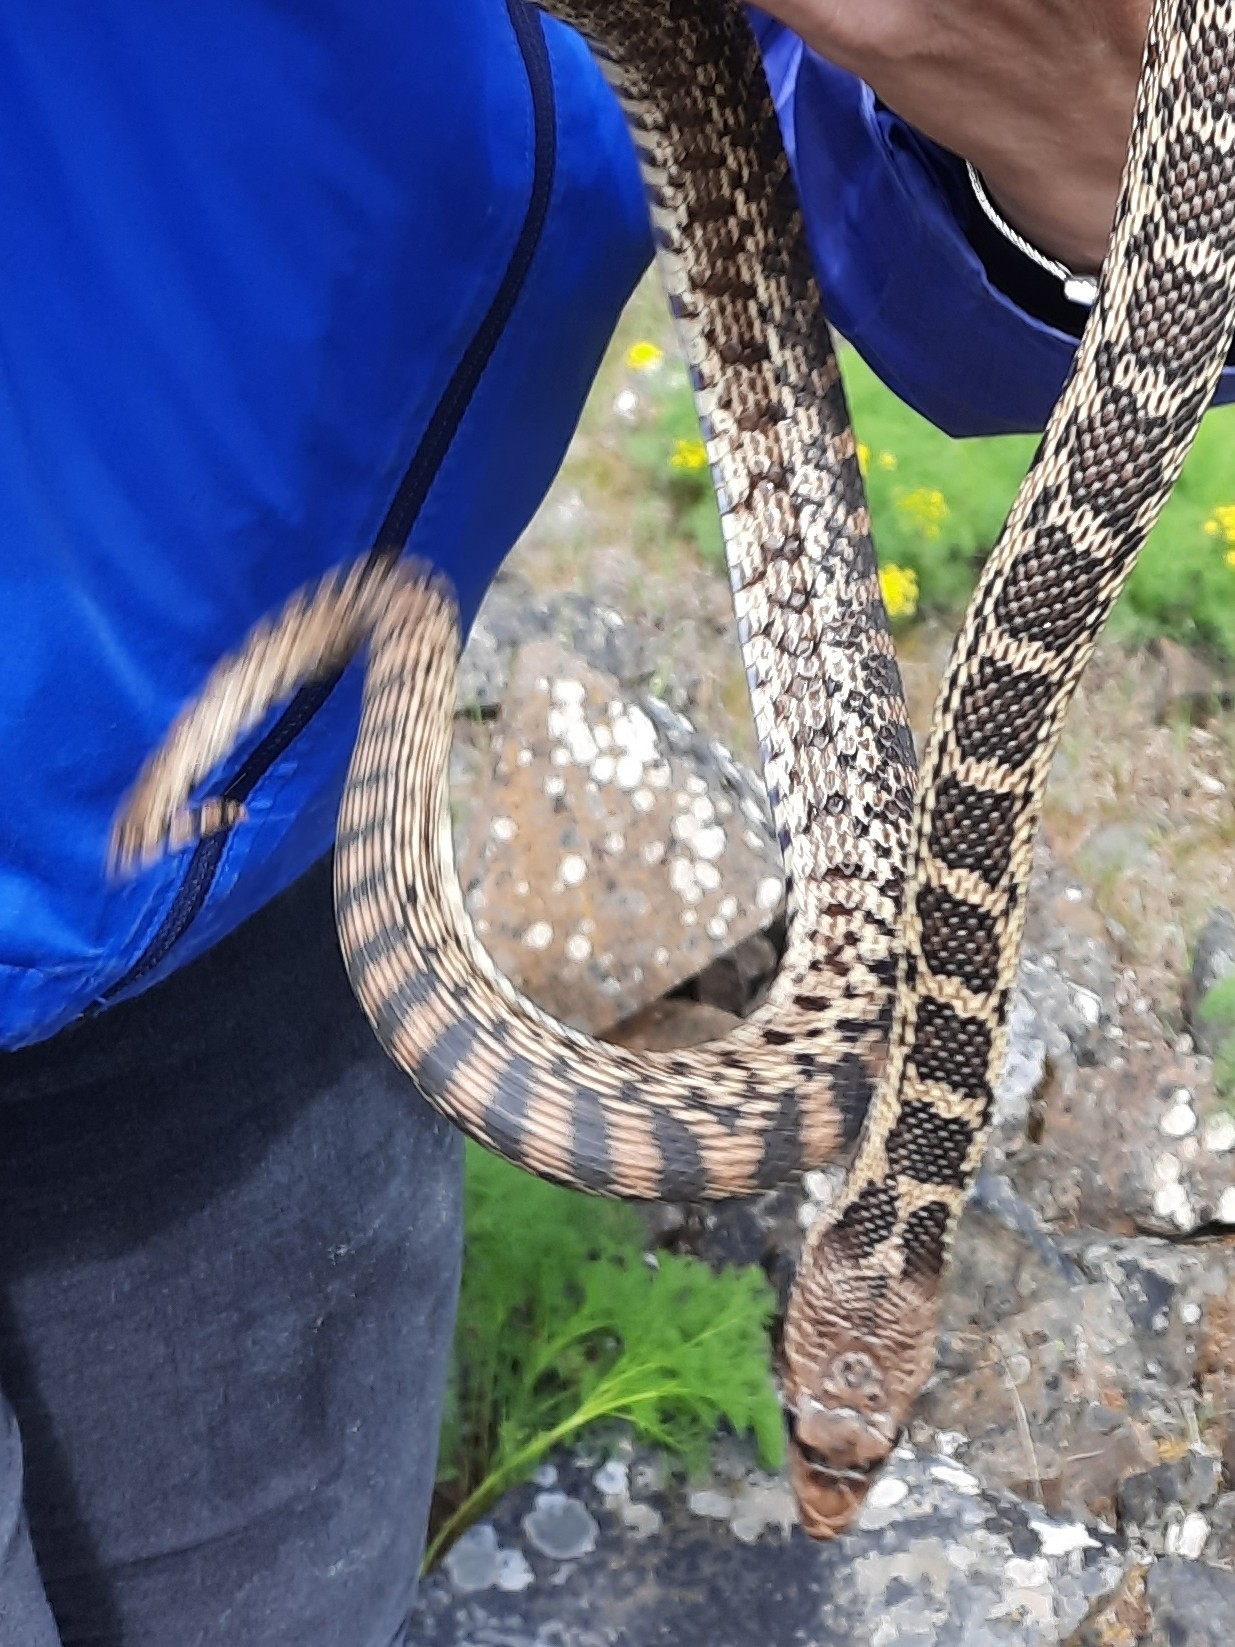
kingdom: Animalia
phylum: Chordata
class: Squamata
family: Colubridae
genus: Pituophis
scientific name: Pituophis catenifer
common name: Gopher snake
